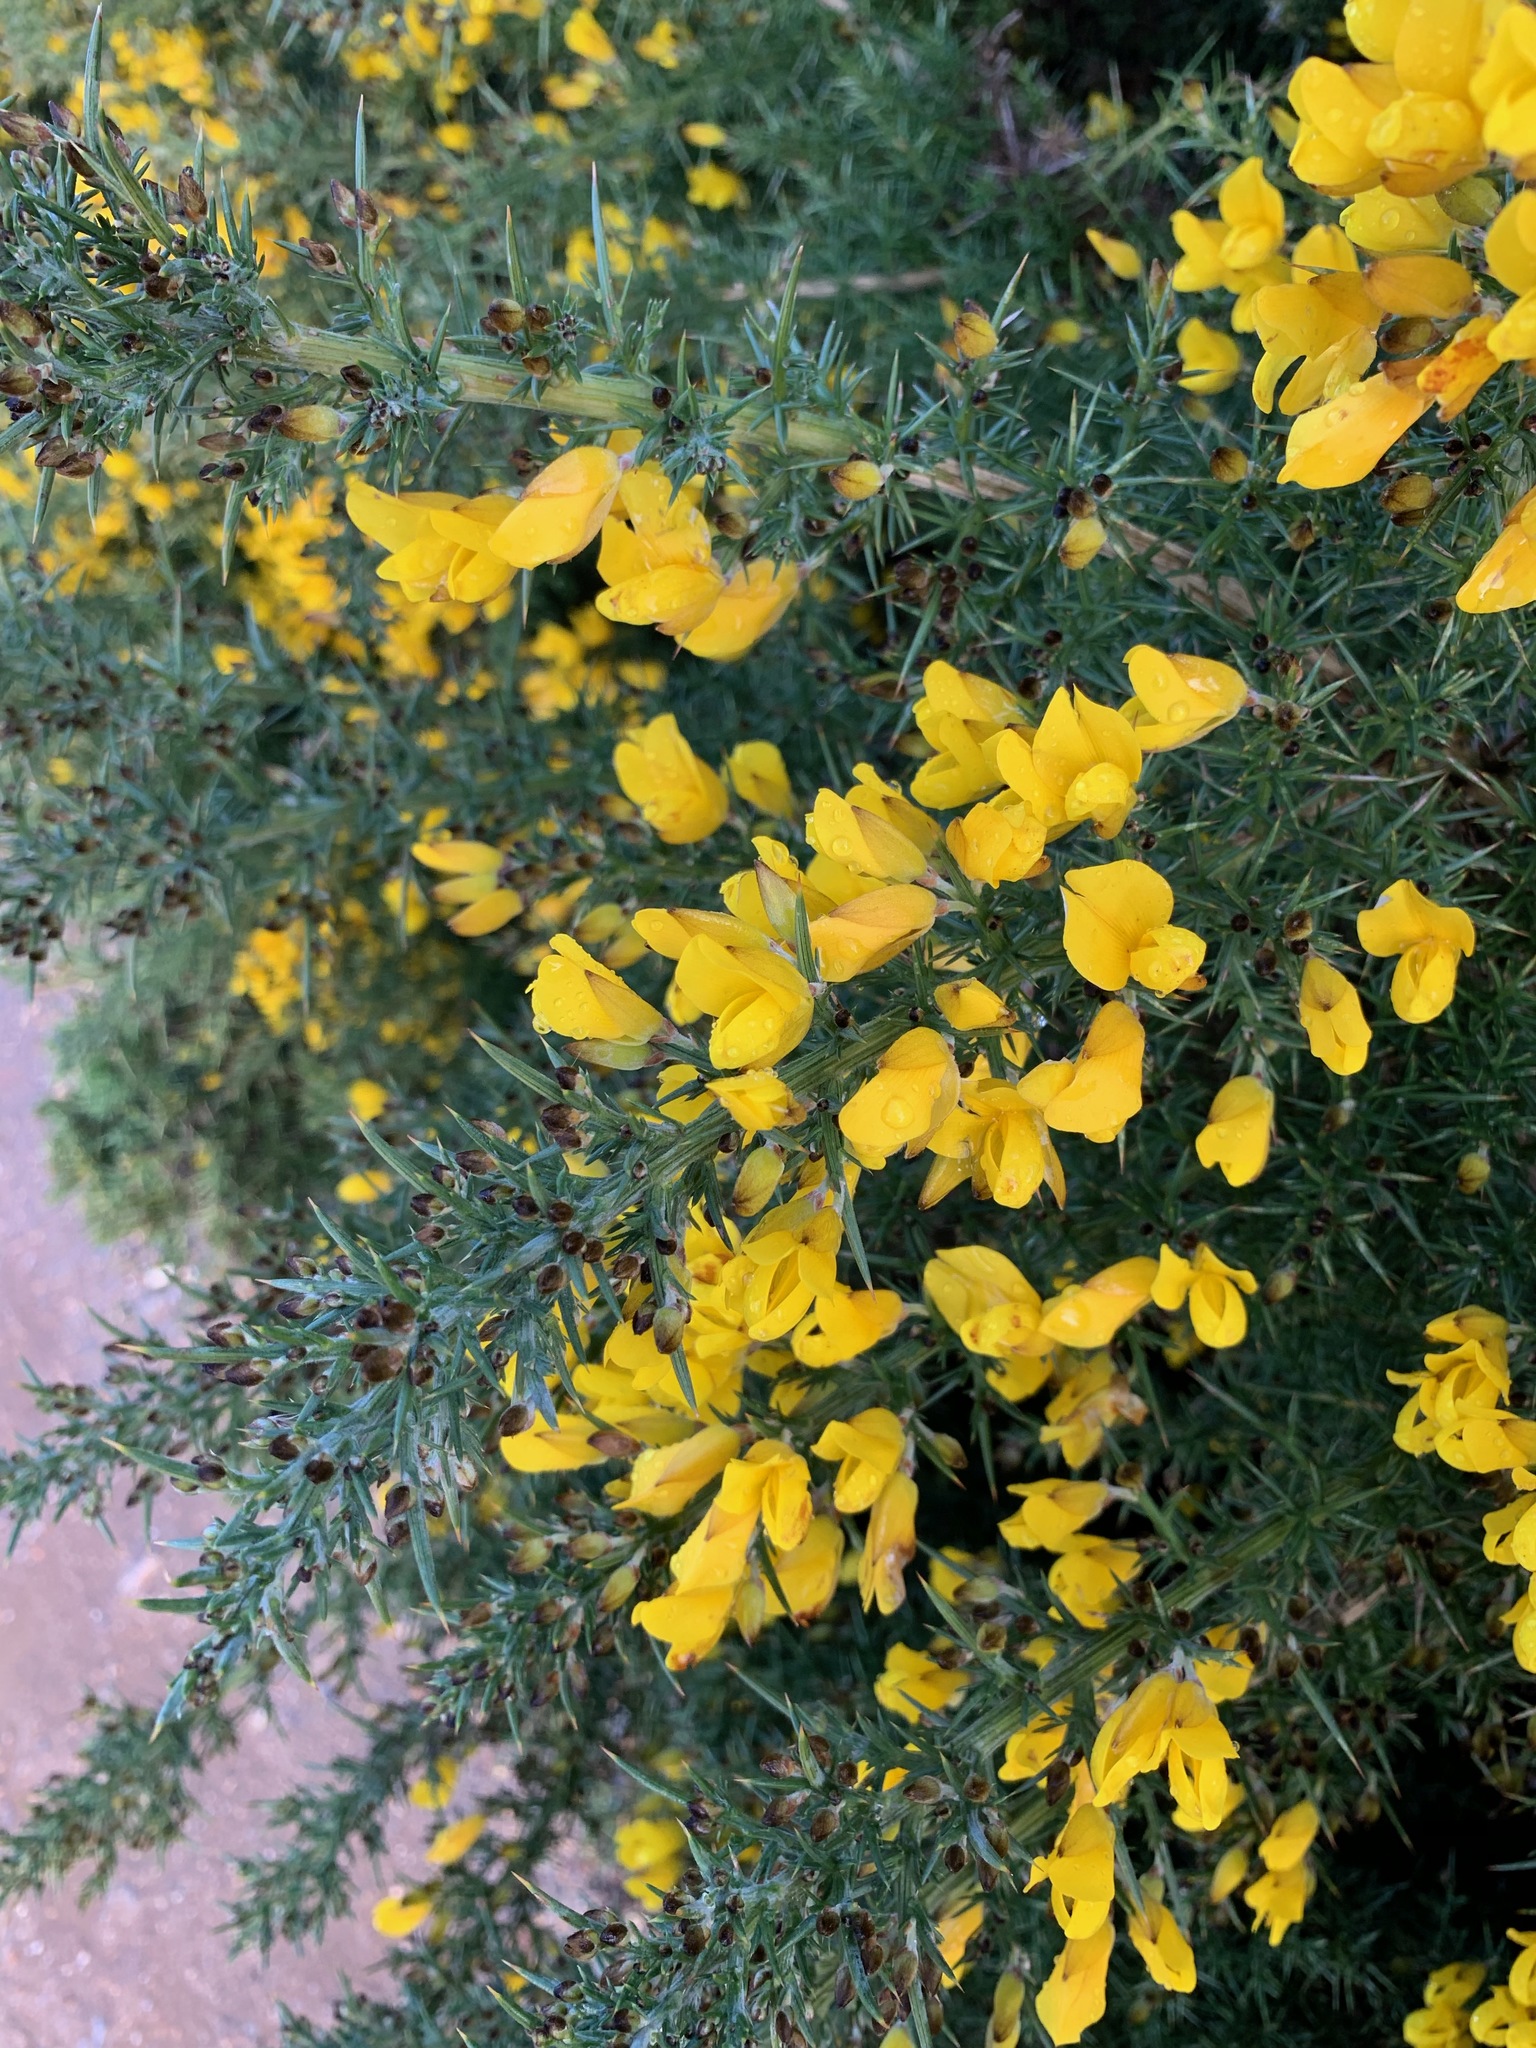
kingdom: Plantae
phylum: Tracheophyta
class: Magnoliopsida
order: Fabales
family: Fabaceae
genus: Ulex
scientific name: Ulex europaeus
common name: Common gorse
